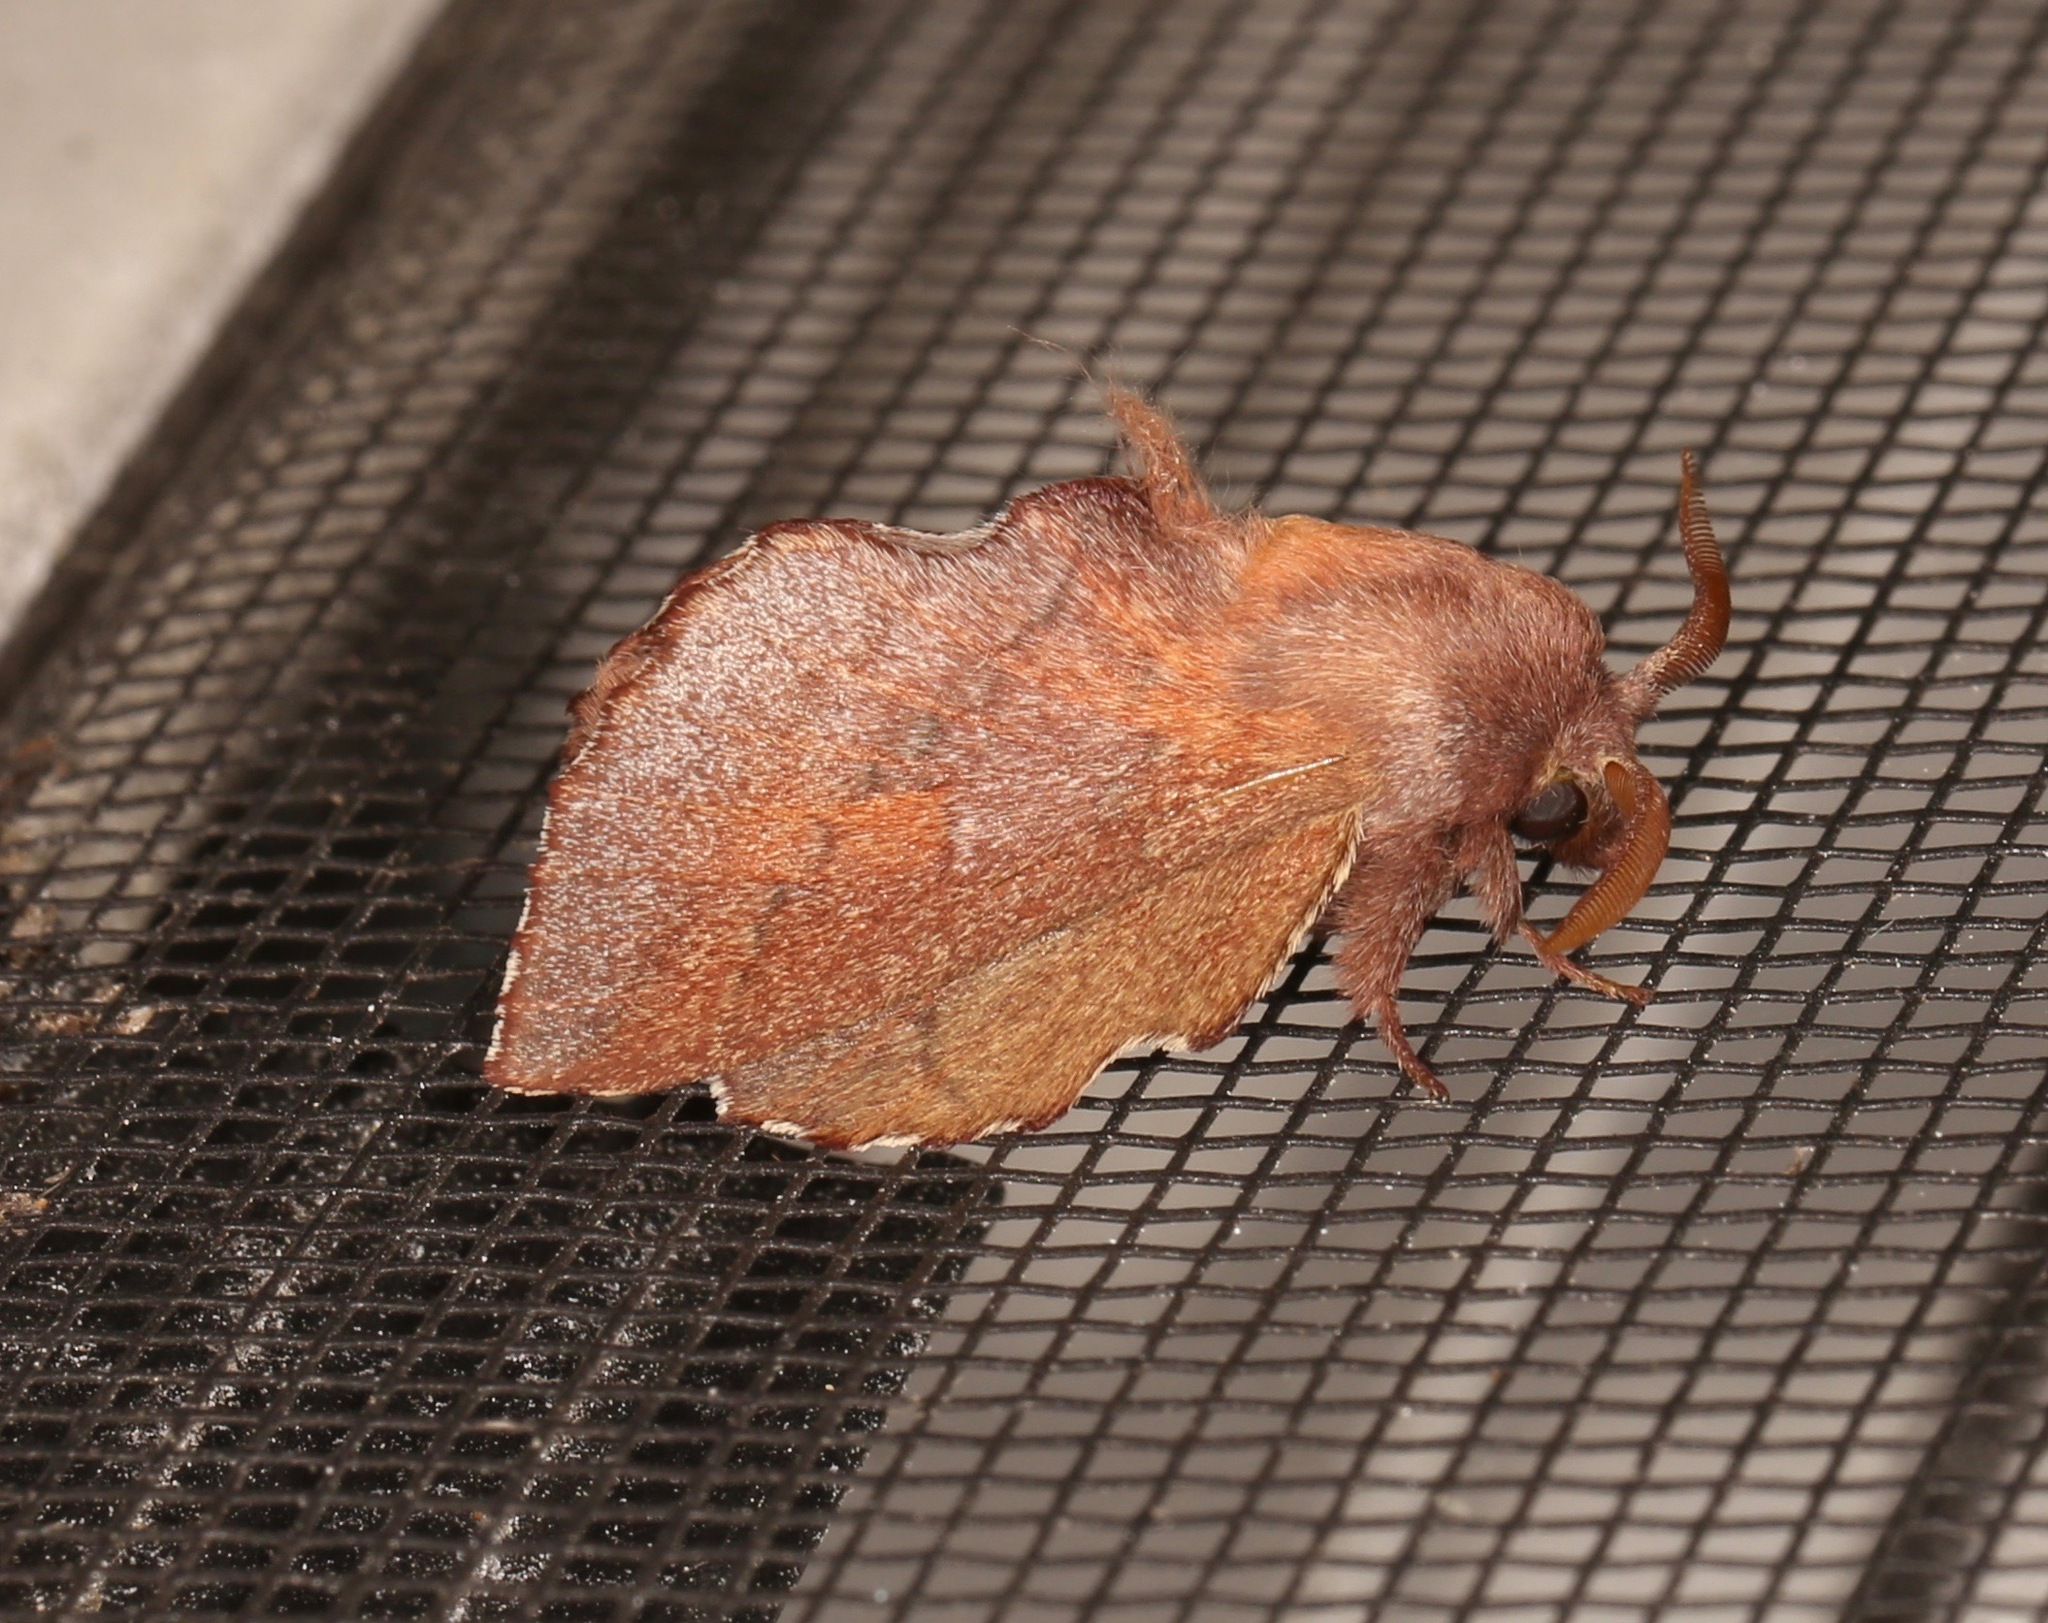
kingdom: Animalia
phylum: Arthropoda
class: Insecta
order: Lepidoptera
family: Lasiocampidae
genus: Phyllodesma
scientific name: Phyllodesma americana
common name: American lappet moth
